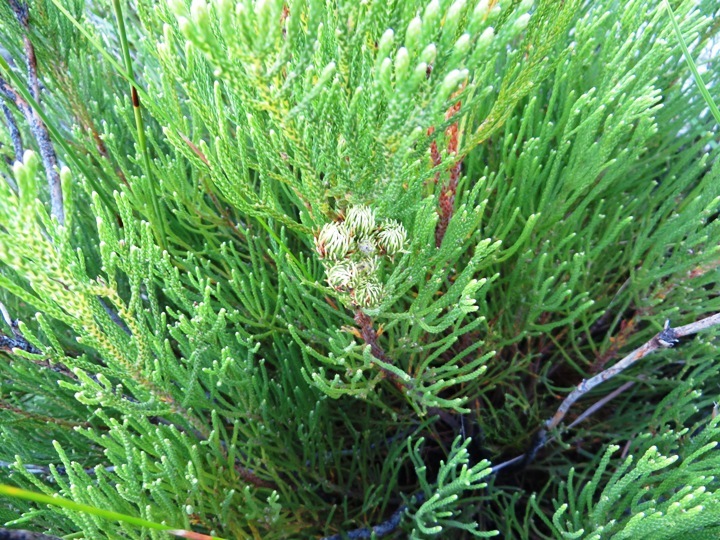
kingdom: Plantae
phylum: Tracheophyta
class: Magnoliopsida
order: Bruniales
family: Bruniaceae
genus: Brunia
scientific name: Brunia paleacea
